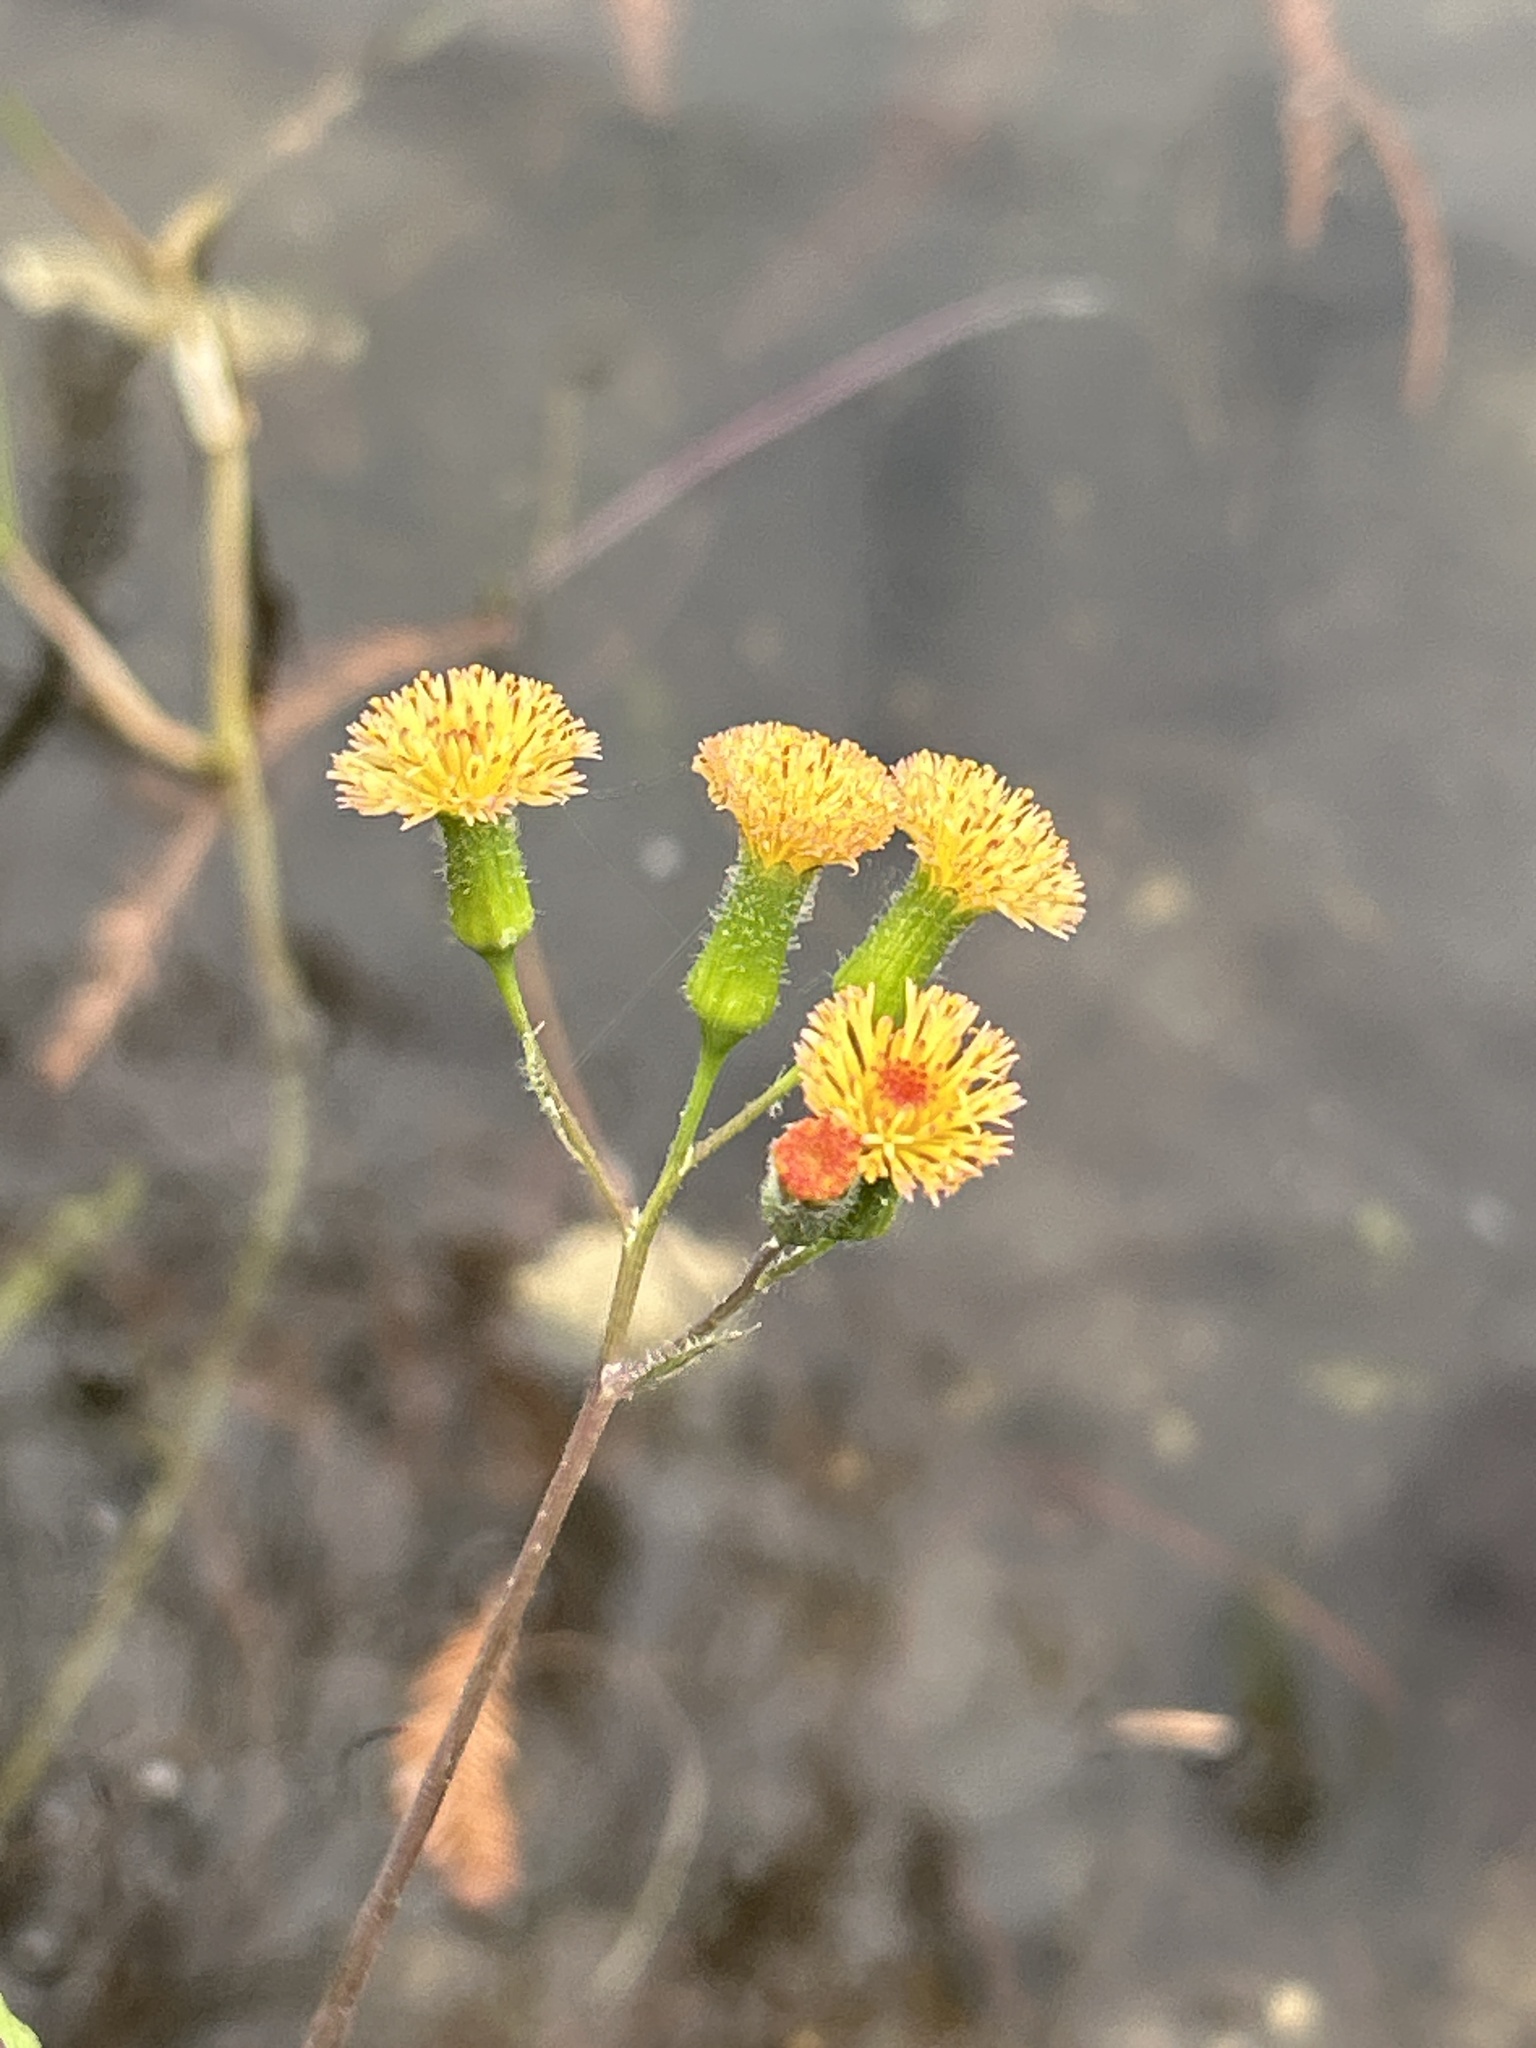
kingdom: Plantae
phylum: Tracheophyta
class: Magnoliopsida
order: Asterales
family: Asteraceae
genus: Emilia
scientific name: Emilia praetermissa
